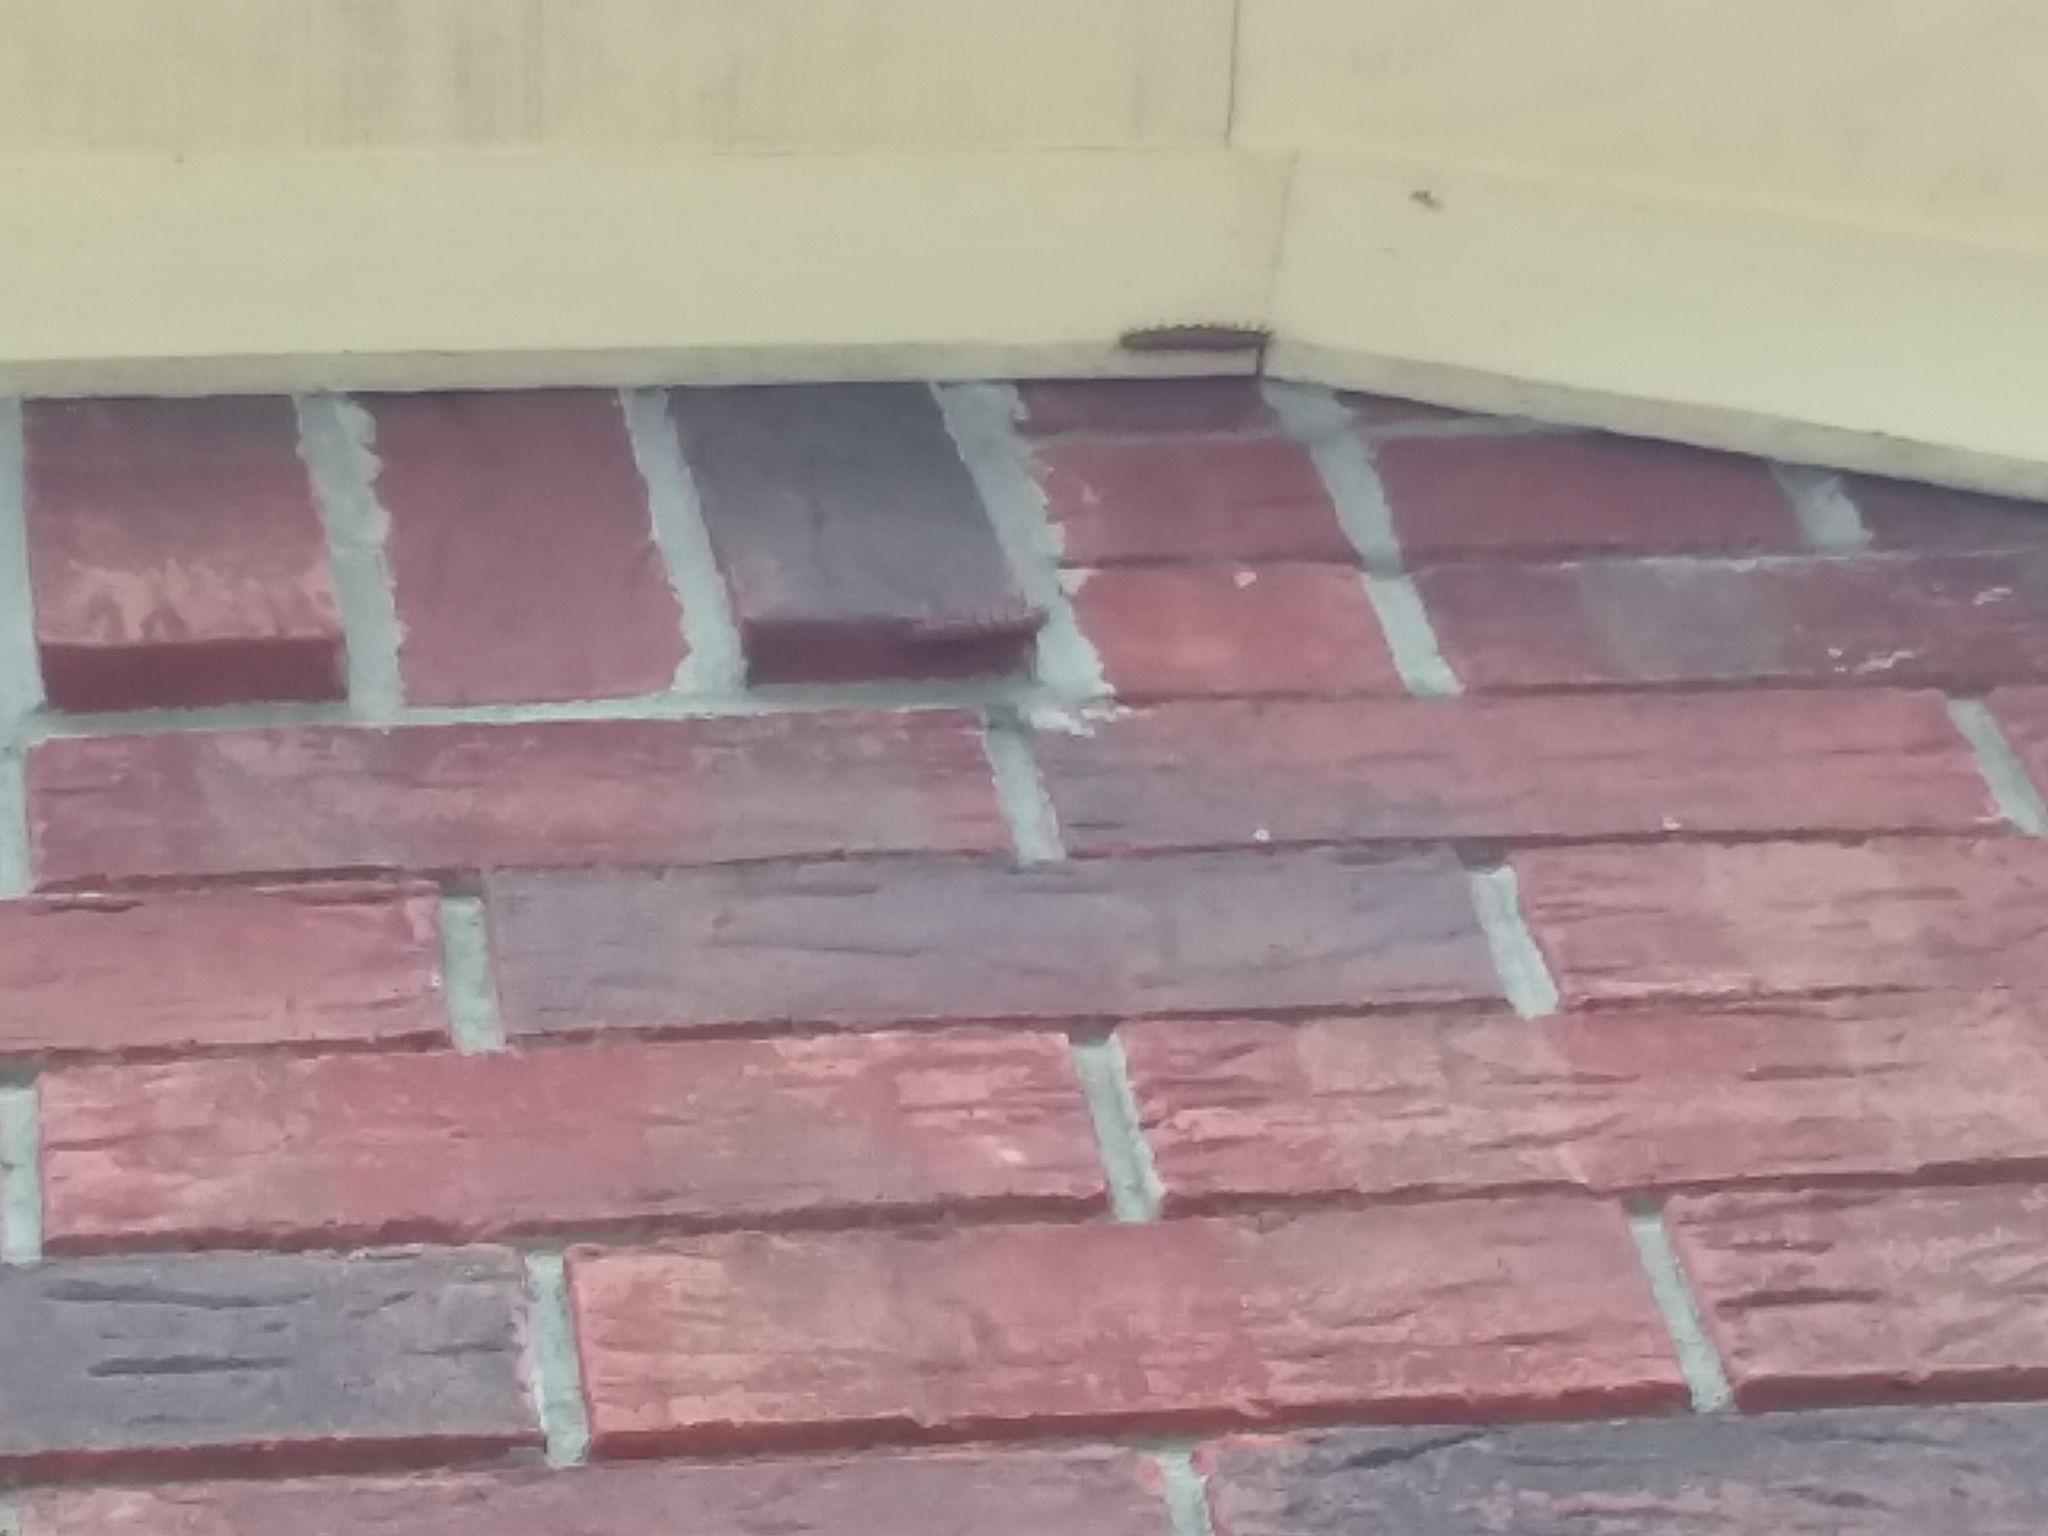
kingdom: Animalia
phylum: Arthropoda
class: Insecta
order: Lepidoptera
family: Nymphalidae
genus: Dione
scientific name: Dione vanillae
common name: Gulf fritillary
